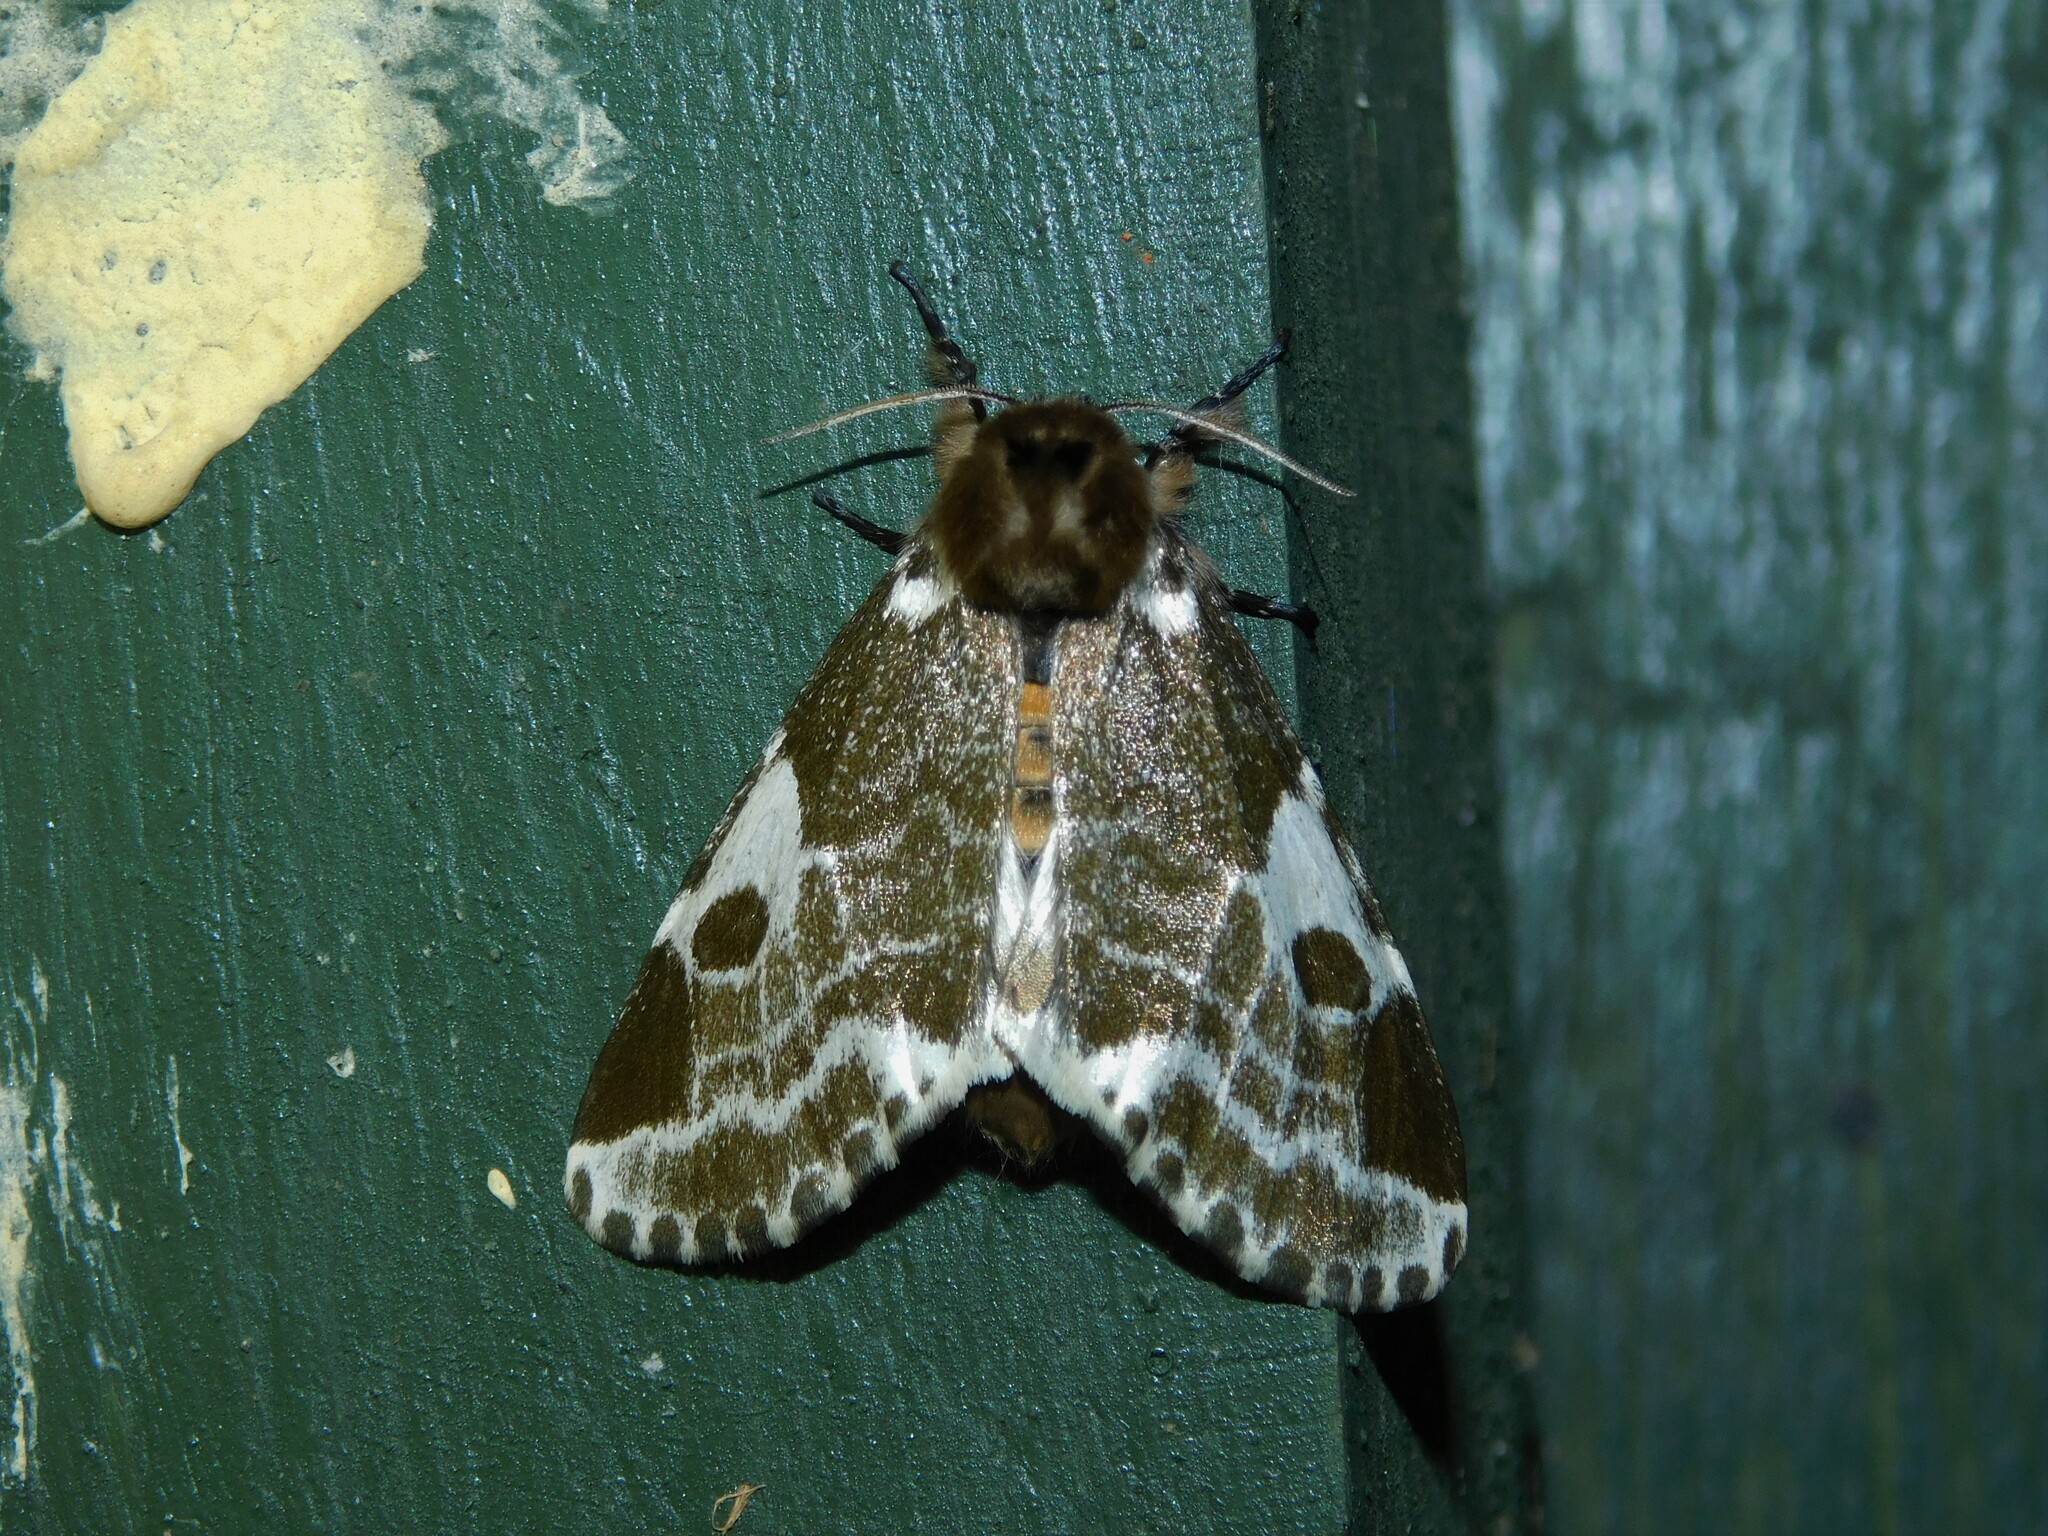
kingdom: Animalia
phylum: Arthropoda
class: Insecta
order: Lepidoptera
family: Erebidae
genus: Sciatta
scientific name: Sciatta inconcisa
